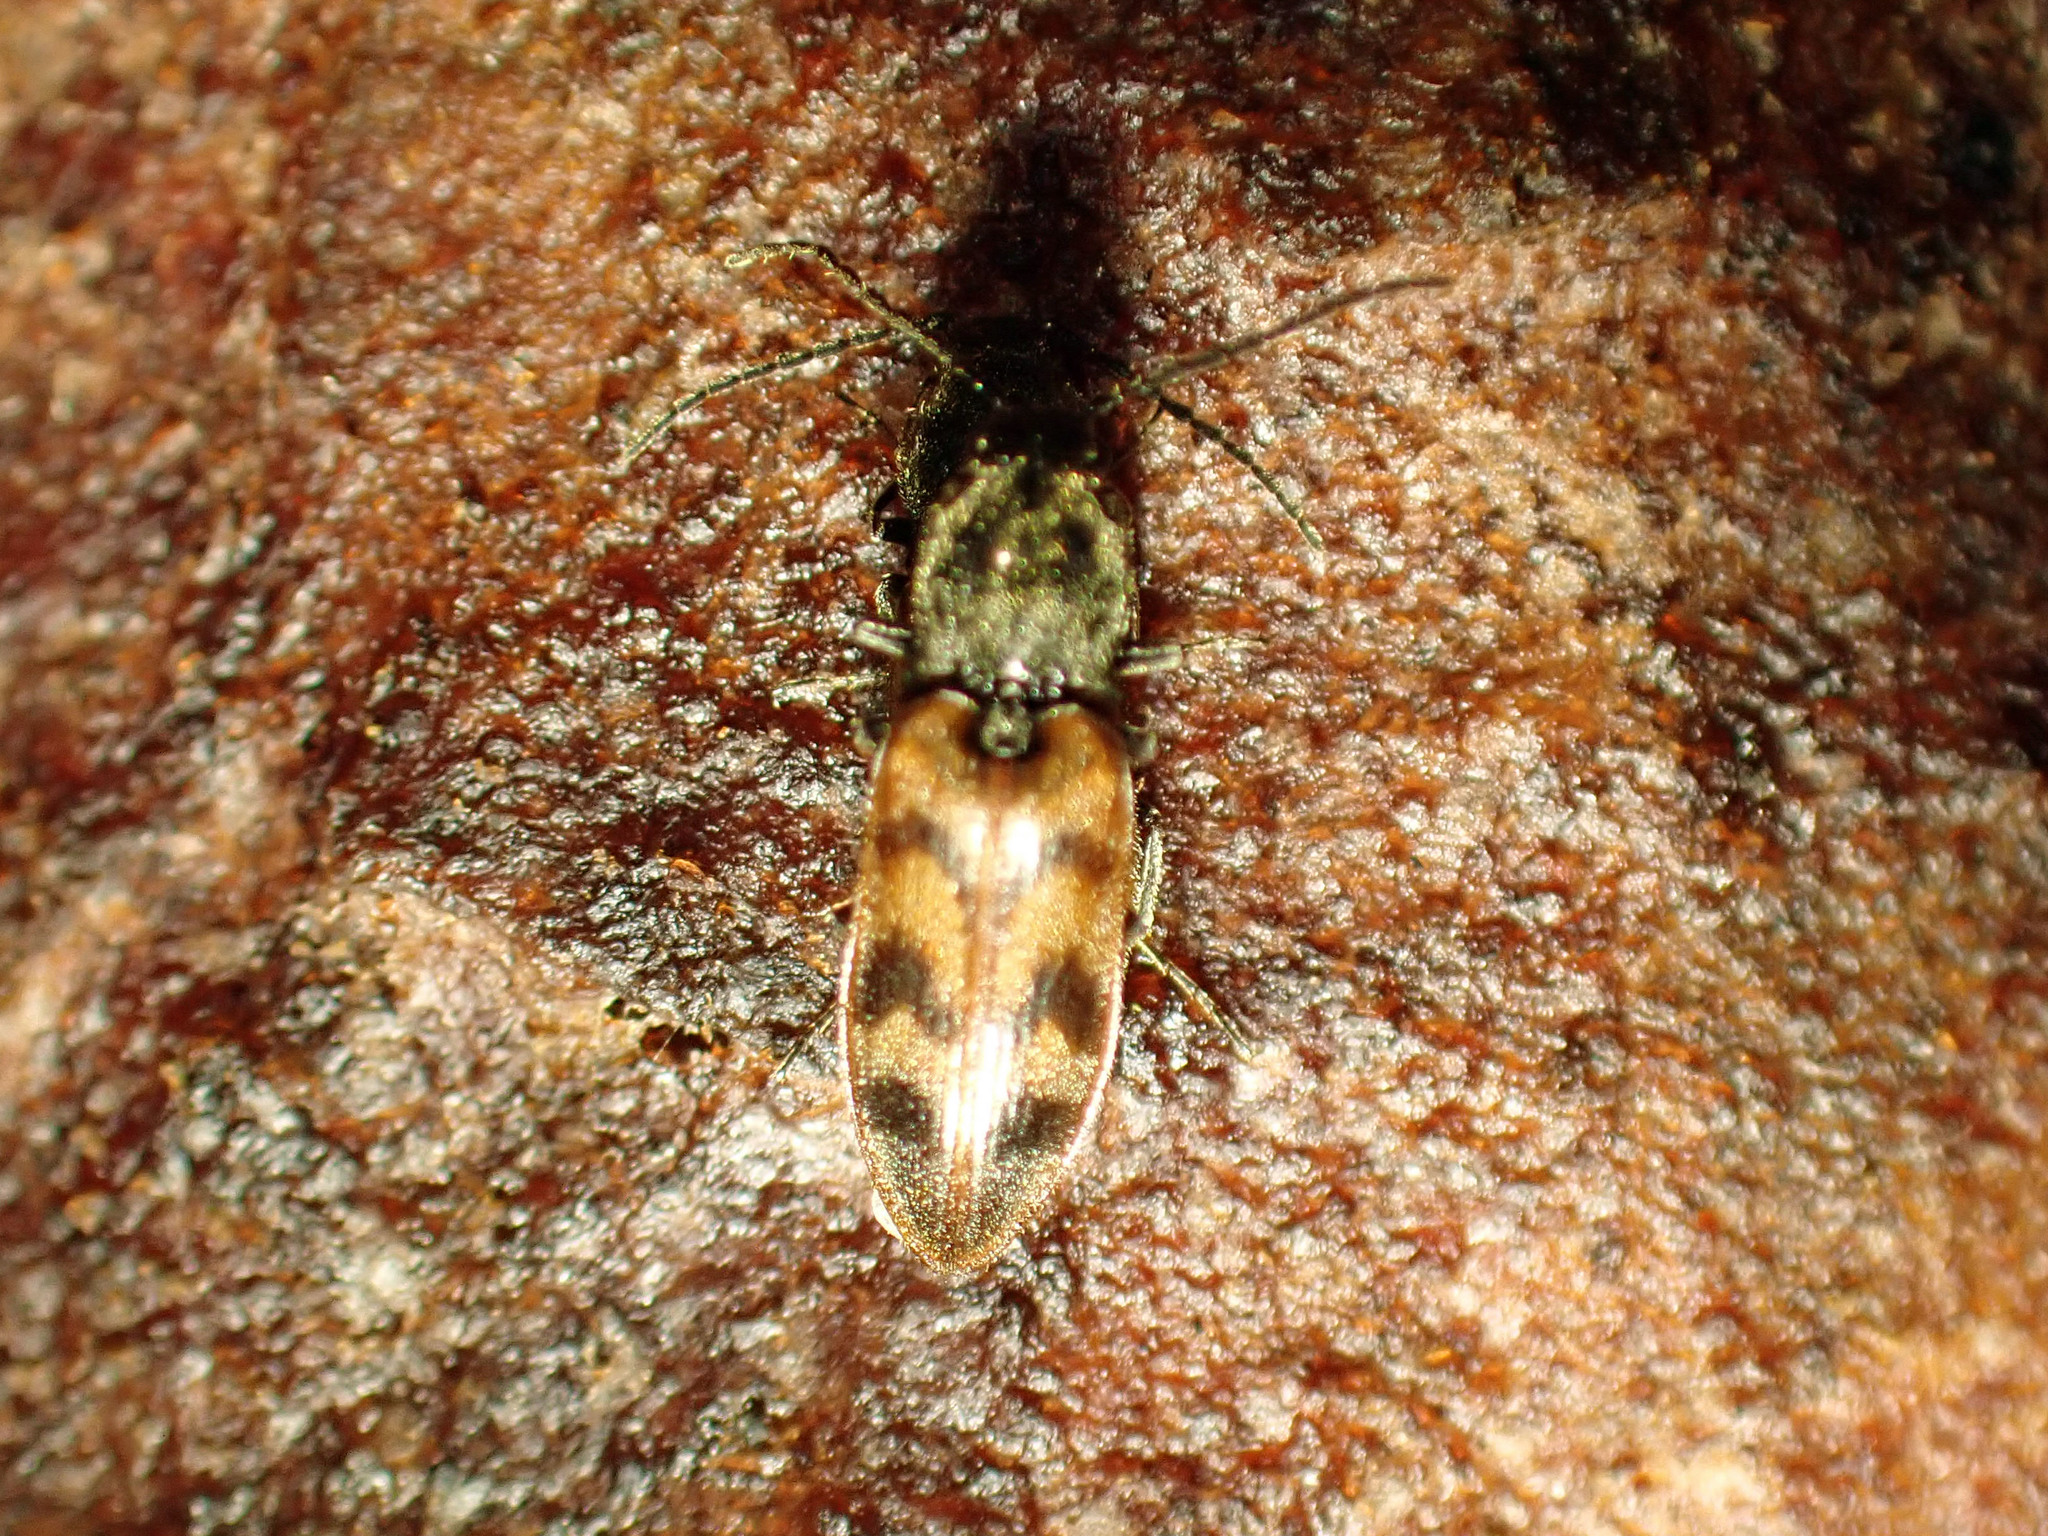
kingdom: Animalia
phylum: Arthropoda
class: Insecta
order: Coleoptera
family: Elateridae
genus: Pseudanostirus
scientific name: Pseudanostirus triundulatus
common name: Three-spotted click beetle
